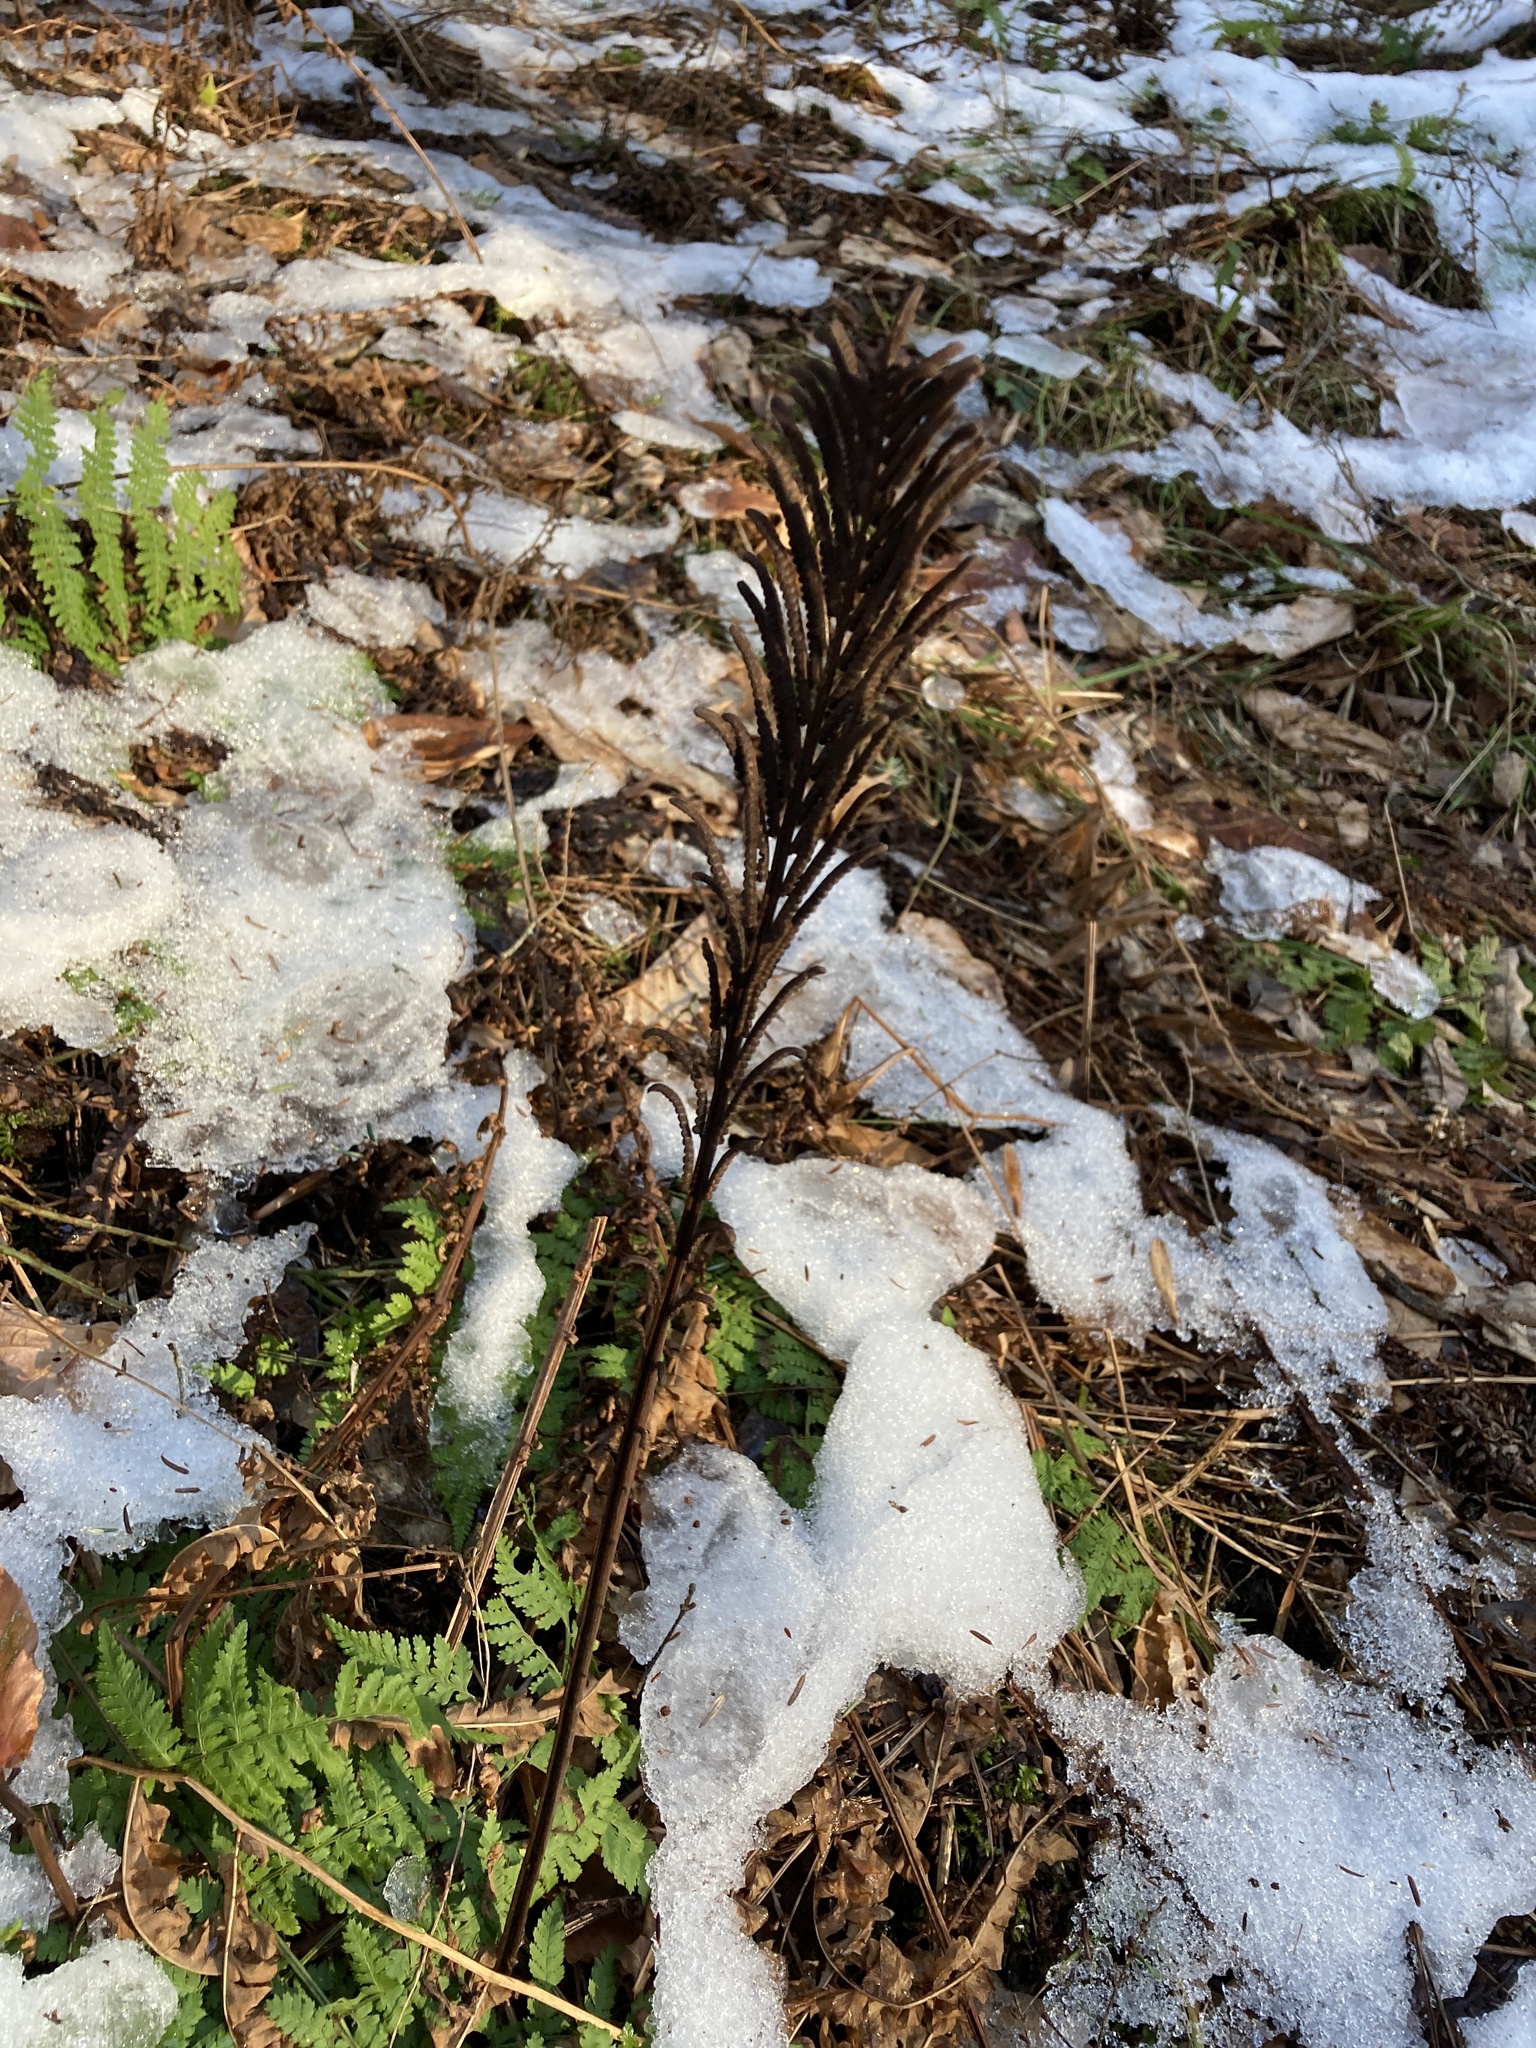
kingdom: Plantae
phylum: Tracheophyta
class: Polypodiopsida
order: Polypodiales
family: Onocleaceae
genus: Matteuccia
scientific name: Matteuccia struthiopteris
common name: Ostrich fern
